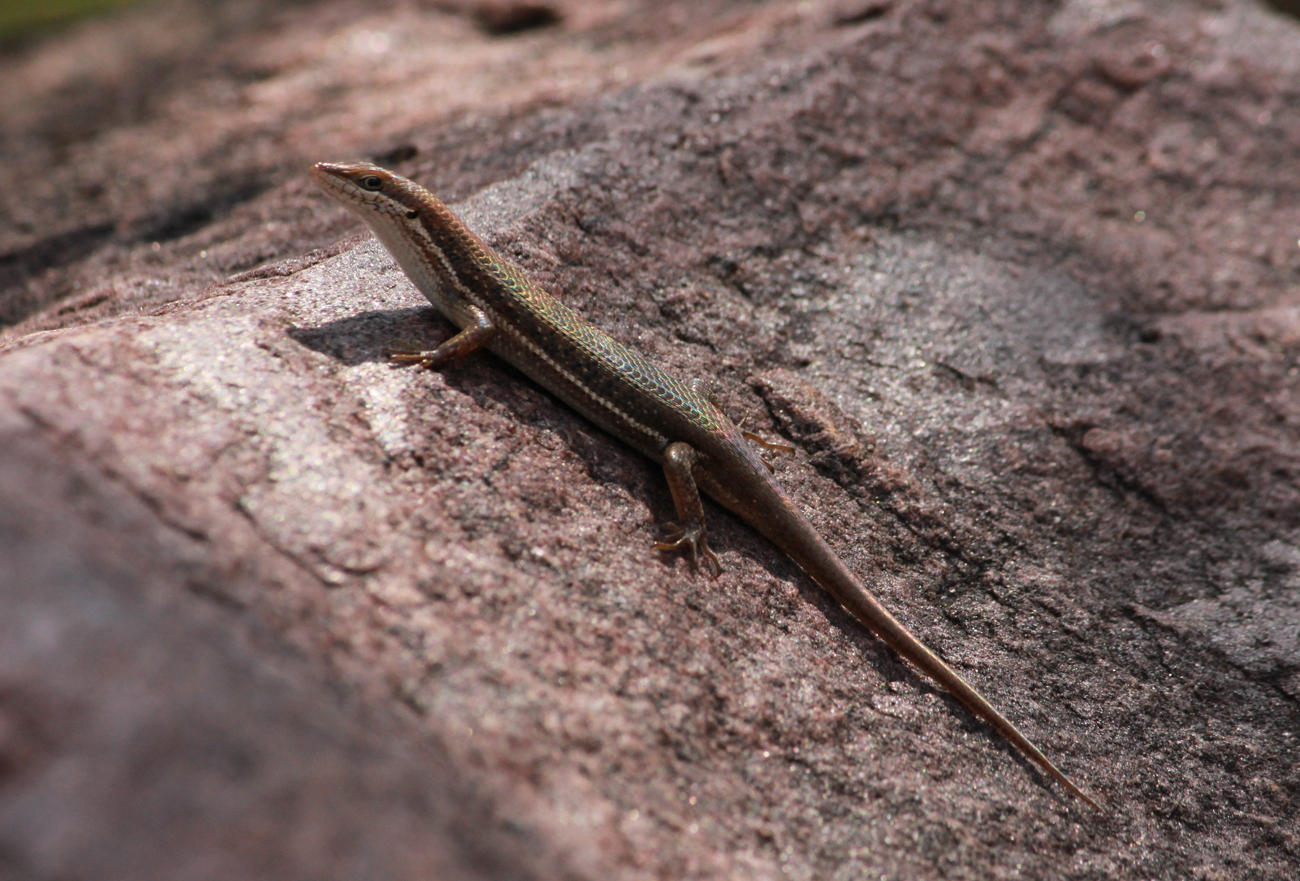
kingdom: Animalia
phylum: Chordata
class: Squamata
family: Scincidae
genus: Trachylepis
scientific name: Trachylepis varia
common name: Eastern variable skink
